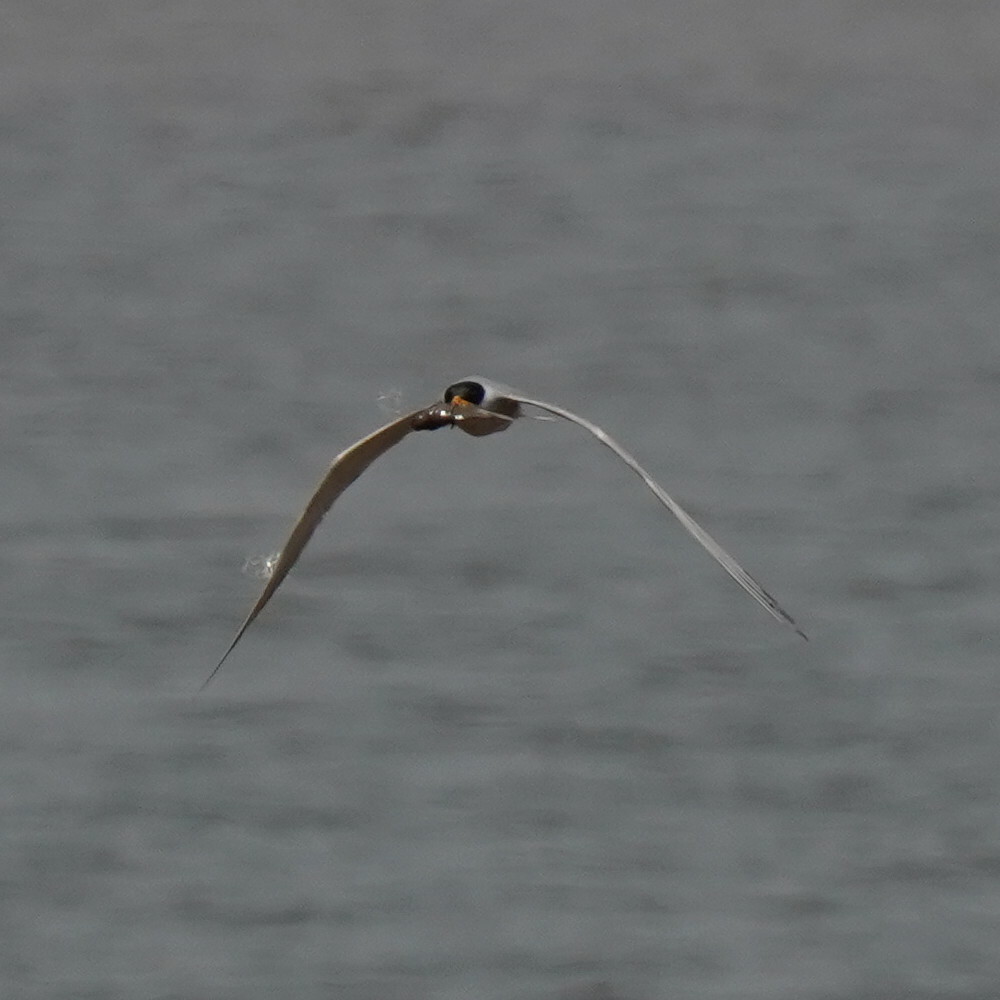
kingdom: Animalia
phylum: Chordata
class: Aves
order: Charadriiformes
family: Laridae
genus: Sterna
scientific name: Sterna aurantia
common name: River tern
